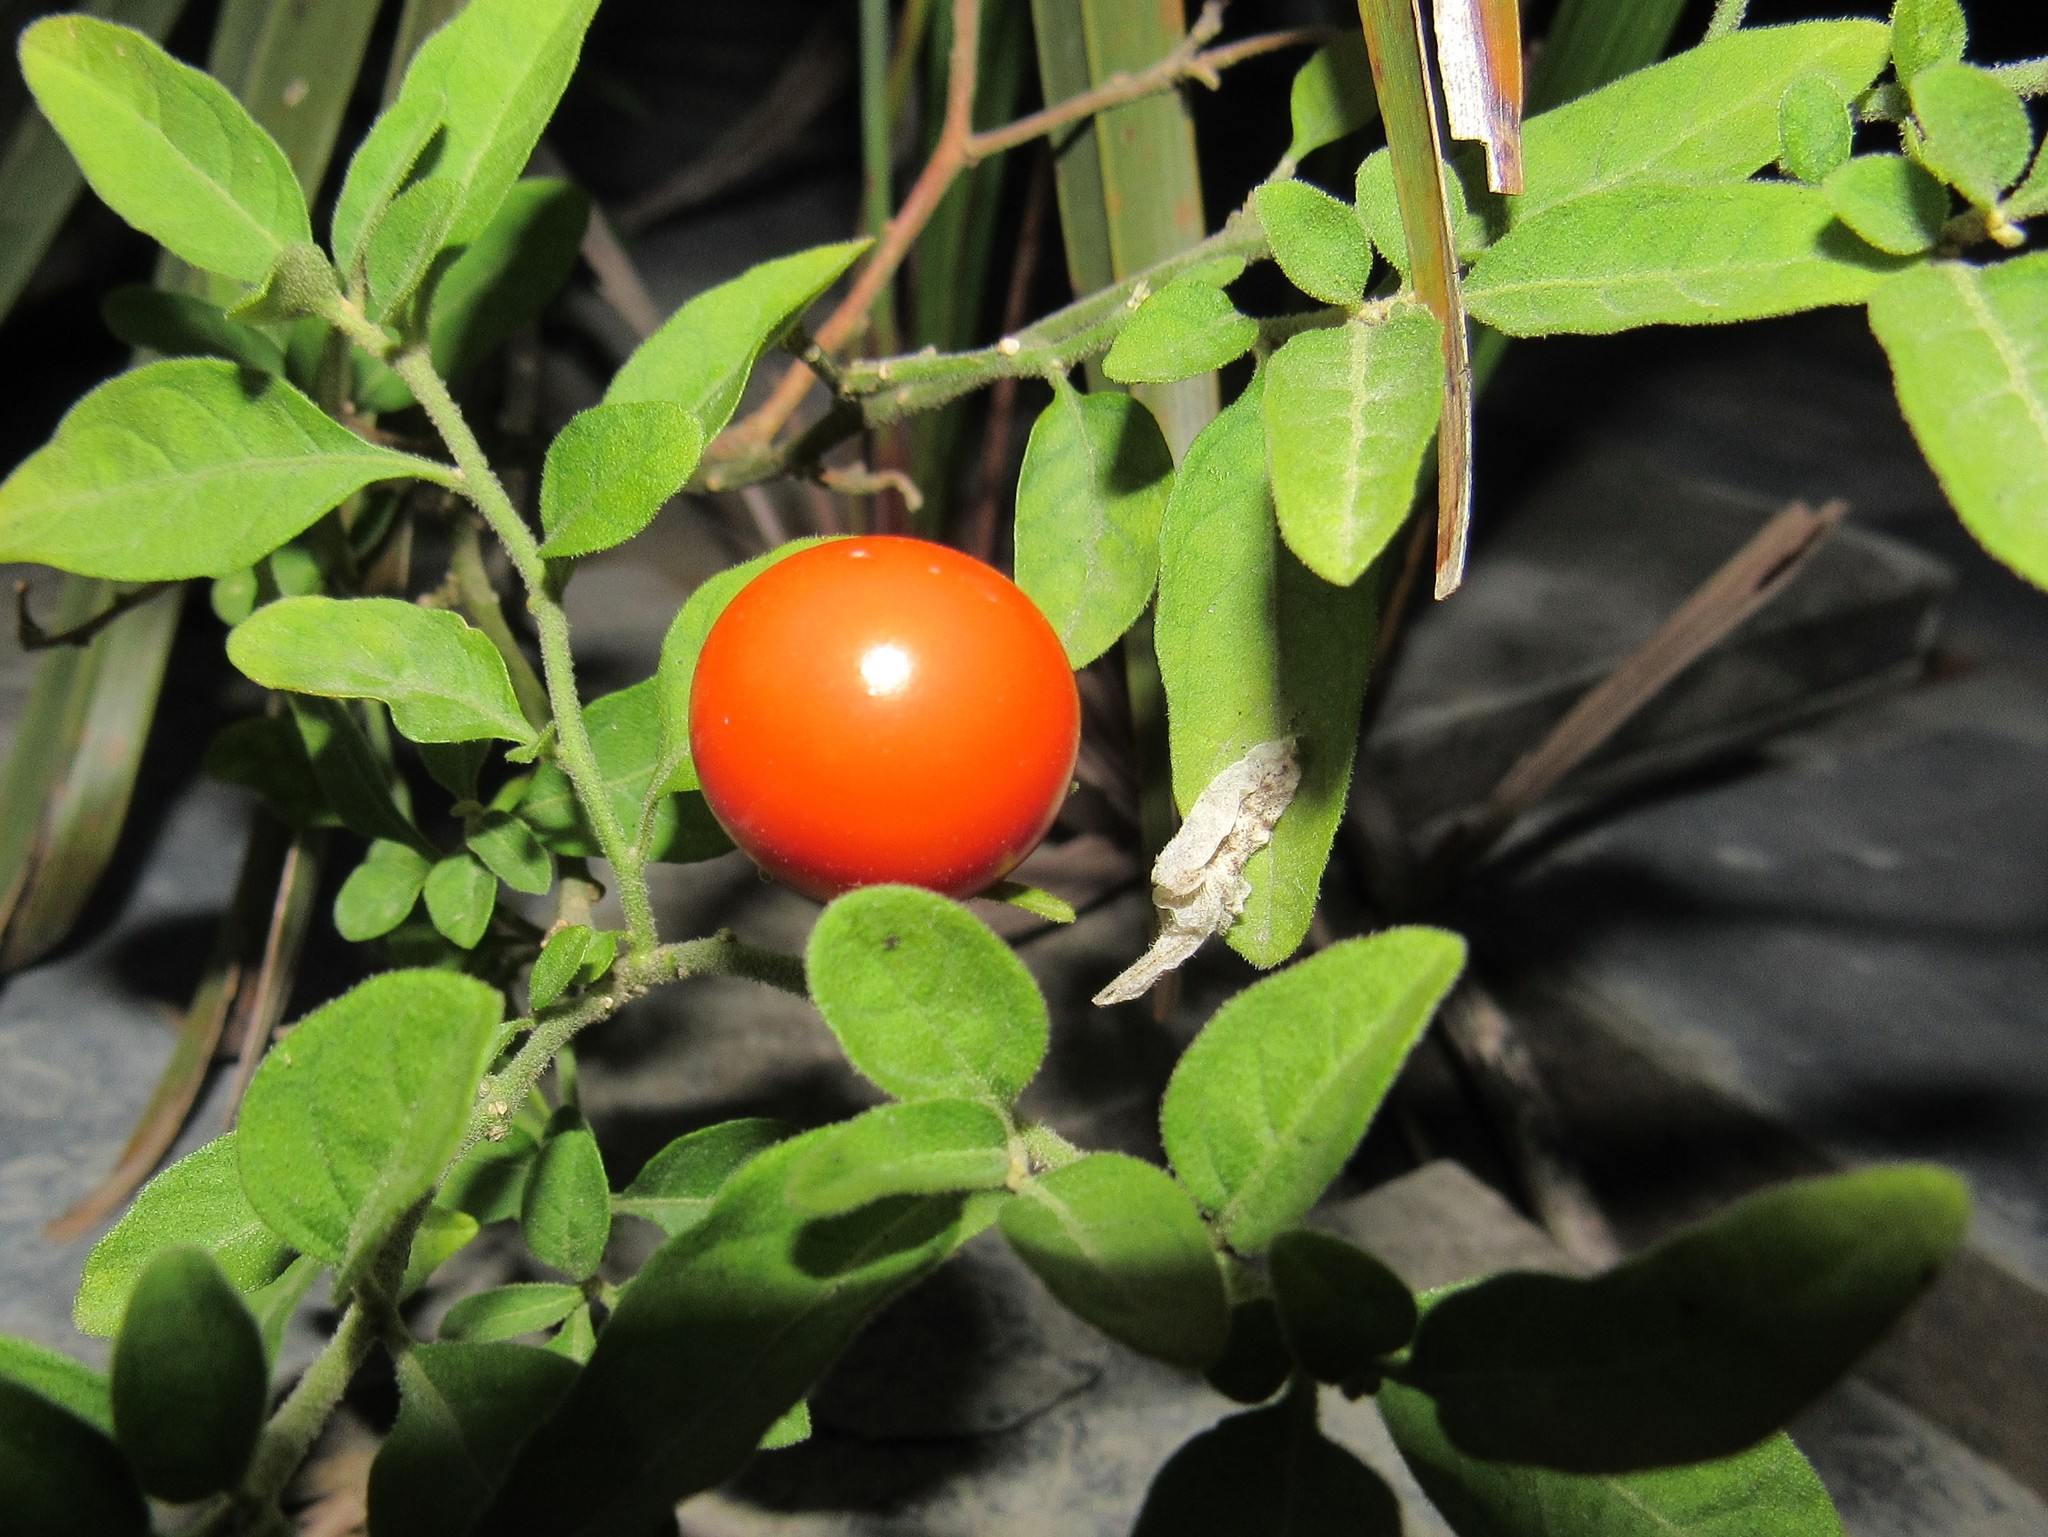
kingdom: Plantae
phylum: Tracheophyta
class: Magnoliopsida
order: Solanales
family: Solanaceae
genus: Solanum
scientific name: Solanum pseudocapsicum
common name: Jerusalem cherry
